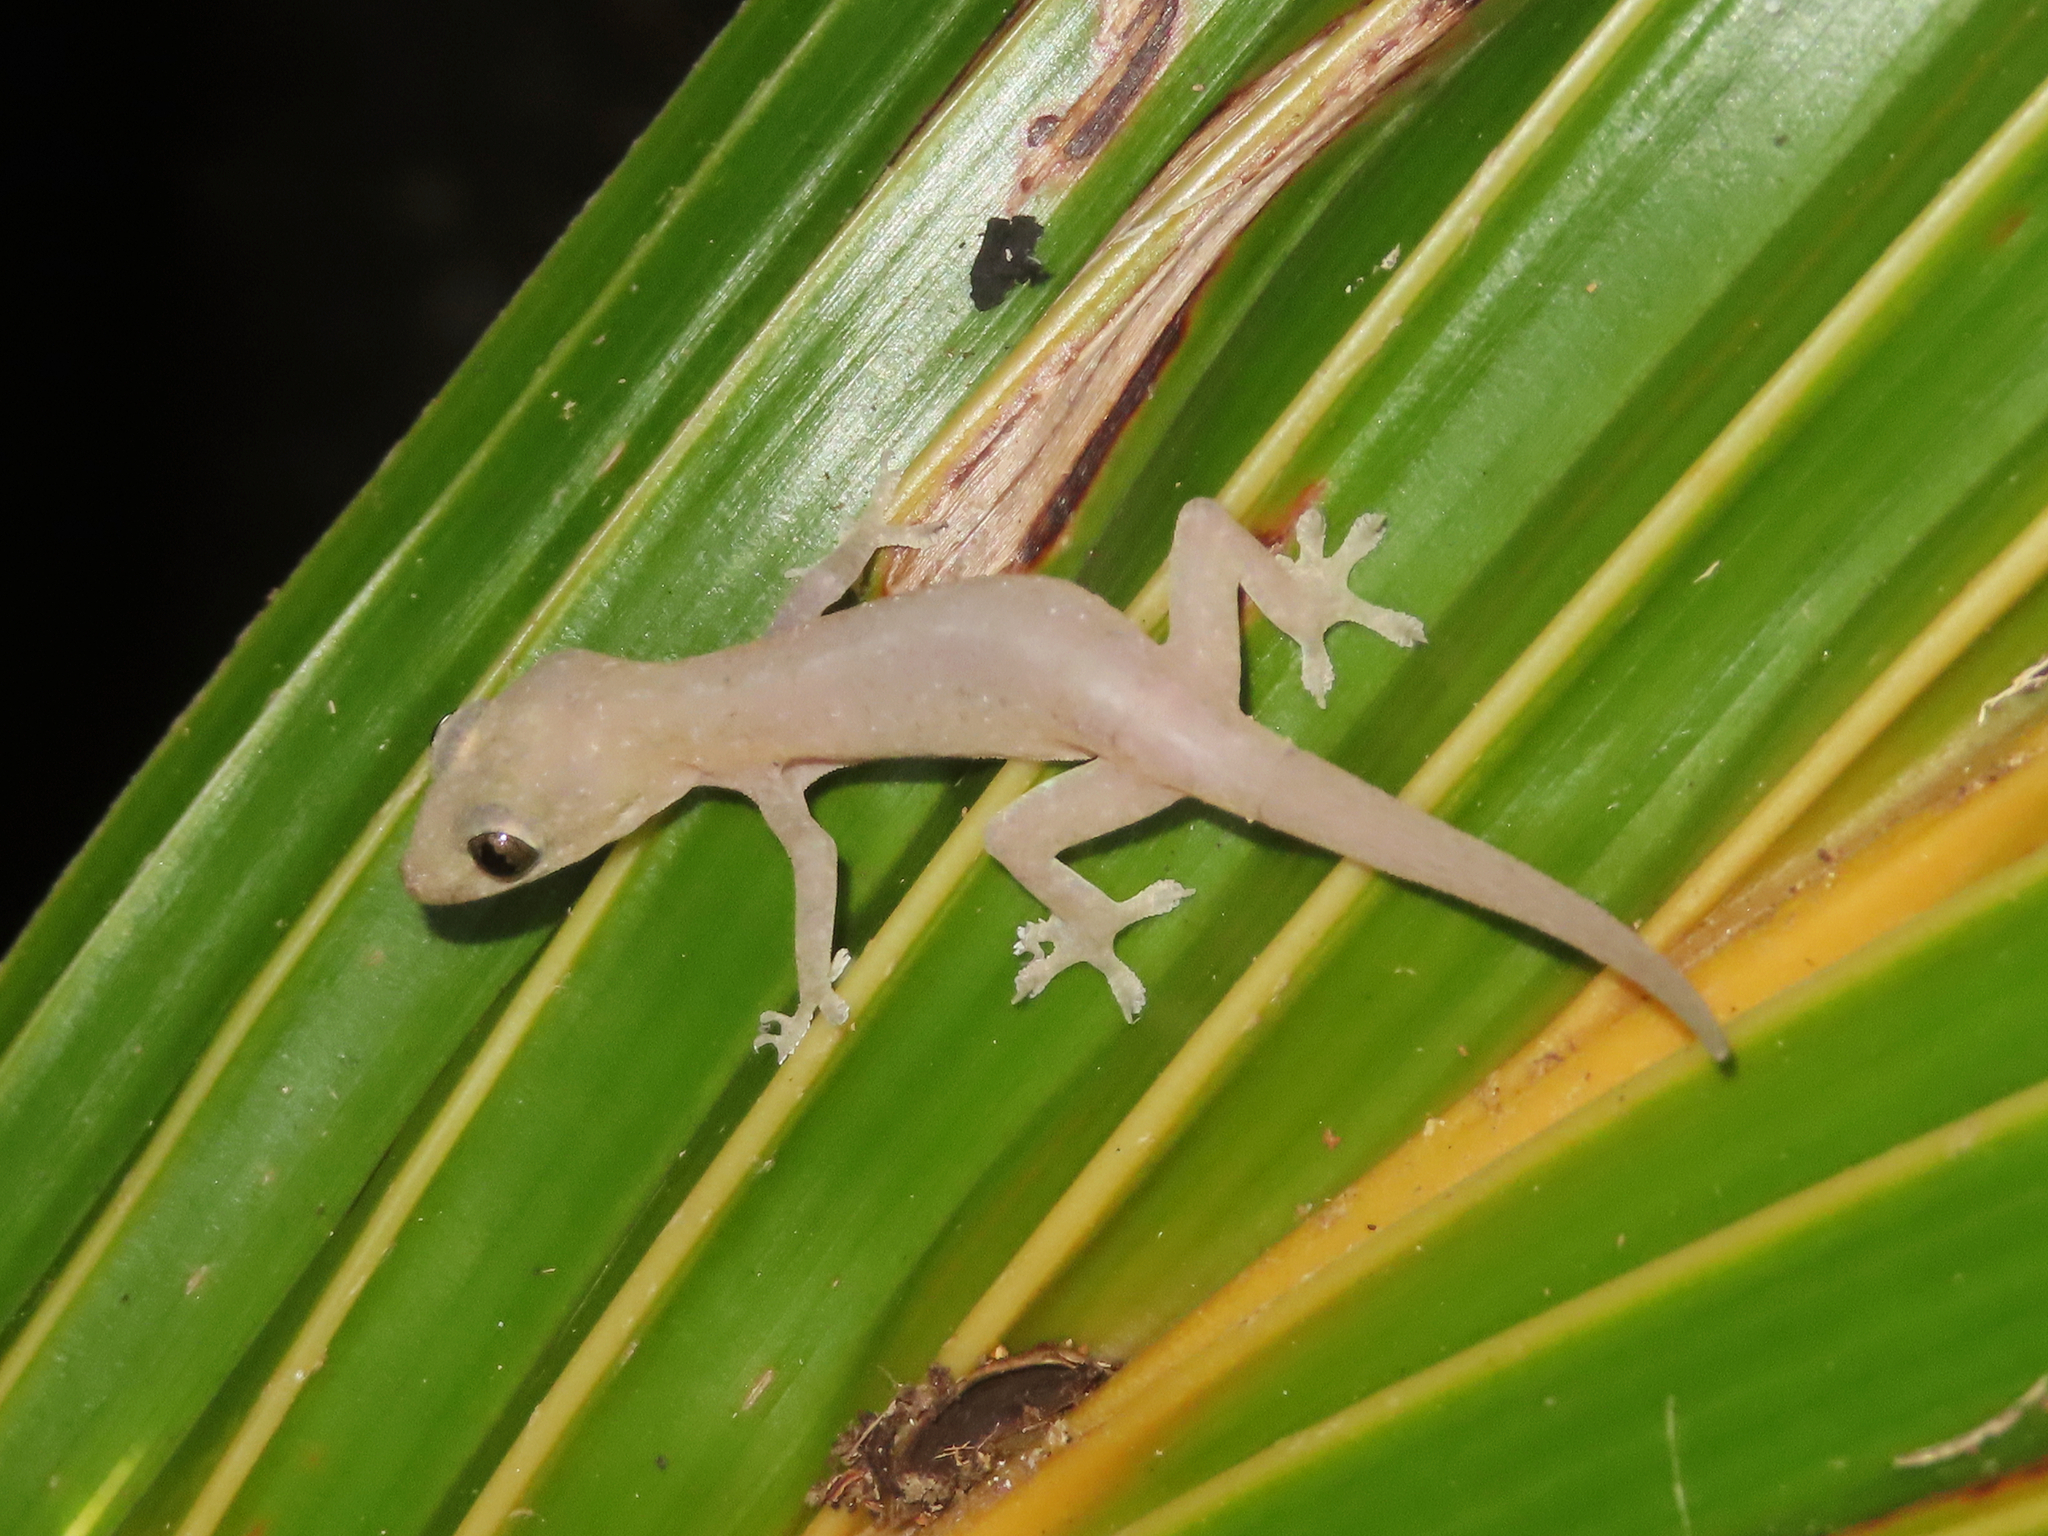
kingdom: Animalia
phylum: Chordata
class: Squamata
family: Gekkonidae
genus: Hemidactylus
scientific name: Hemidactylus frenatus
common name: Common house gecko
